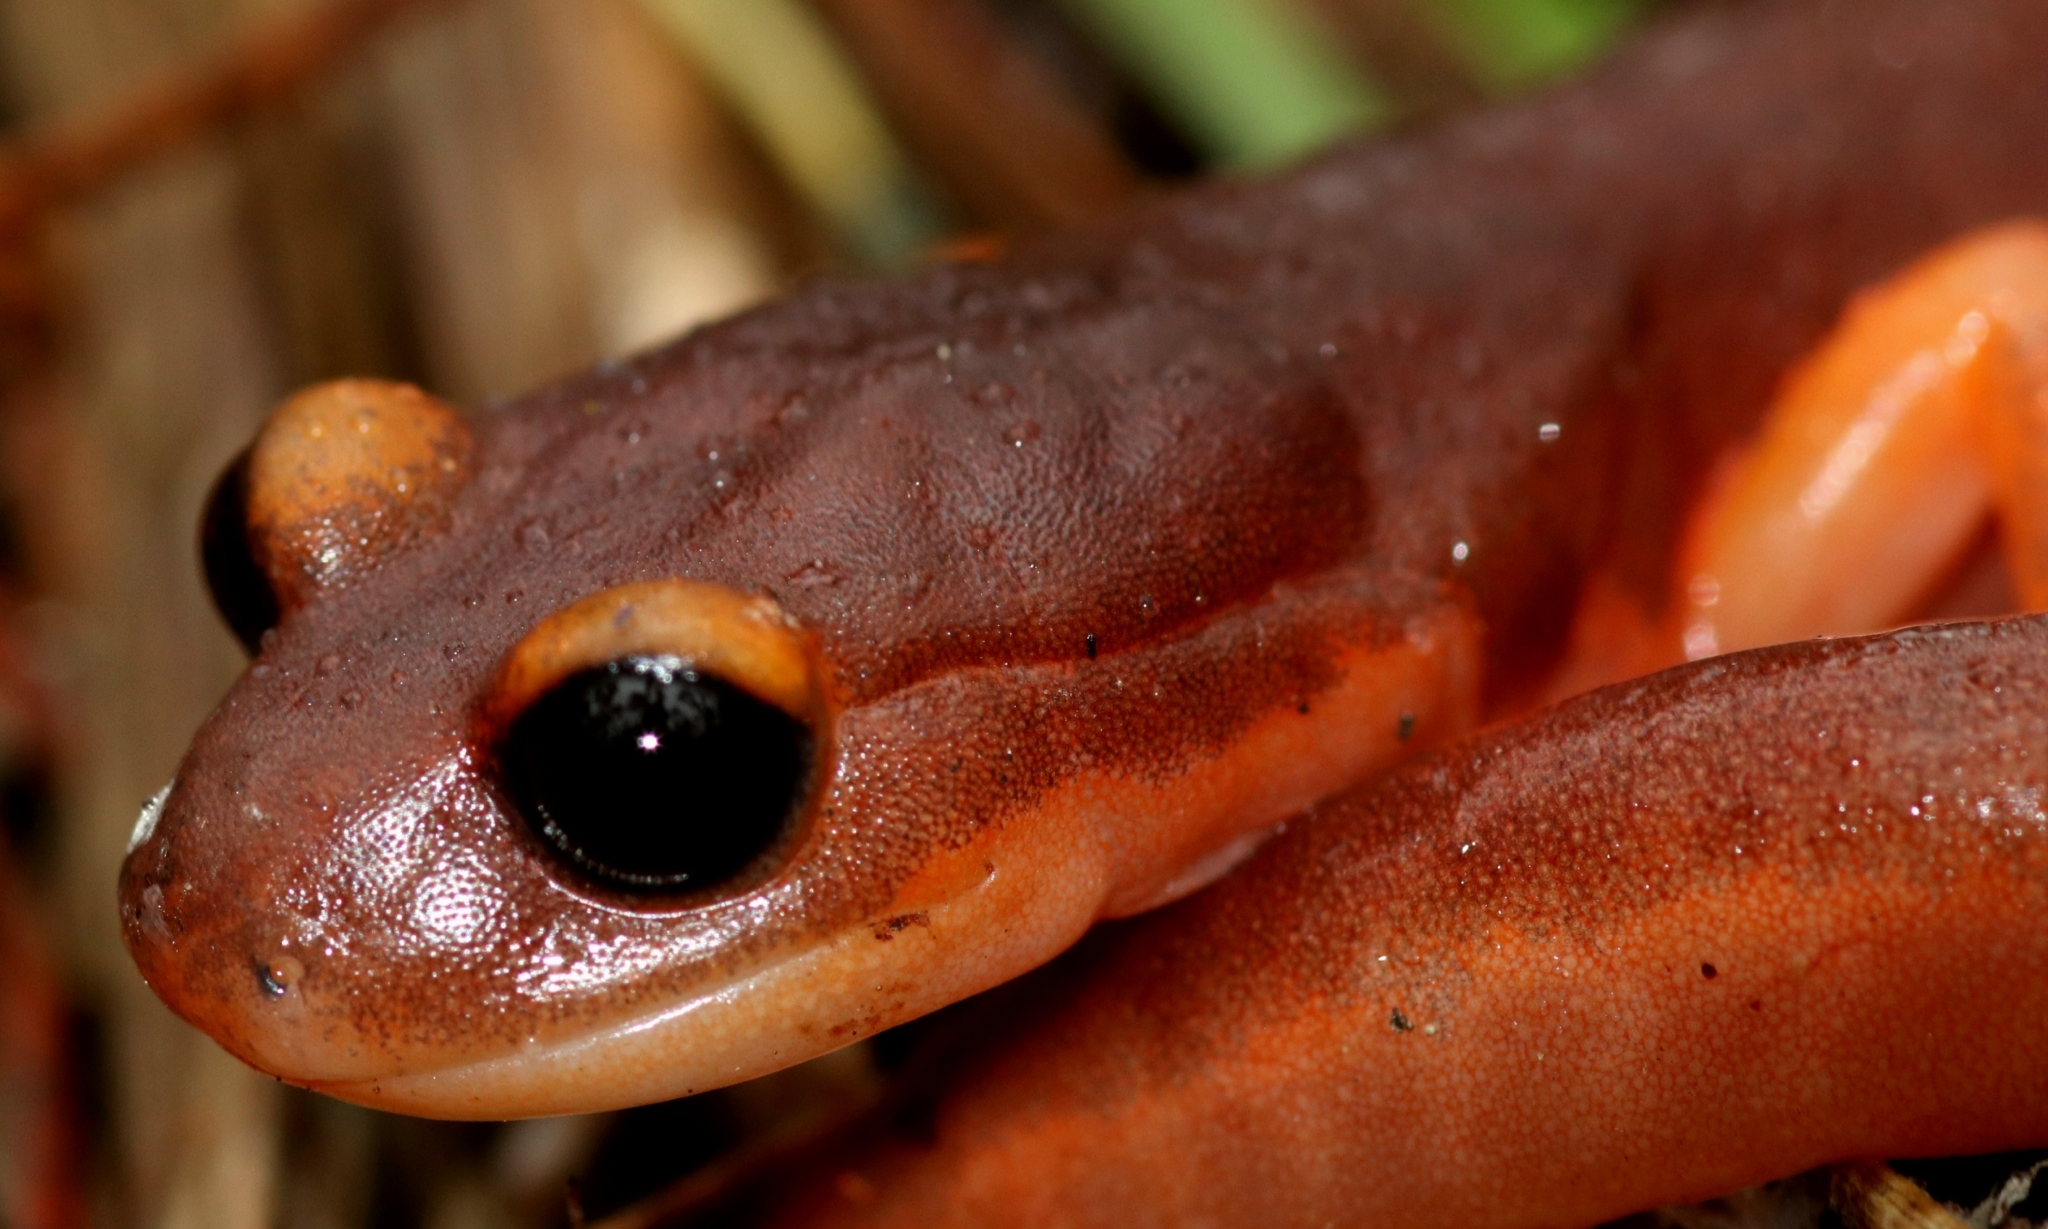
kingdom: Animalia
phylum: Chordata
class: Amphibia
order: Caudata
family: Plethodontidae
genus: Ensatina
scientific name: Ensatina eschscholtzii
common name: Ensatina
